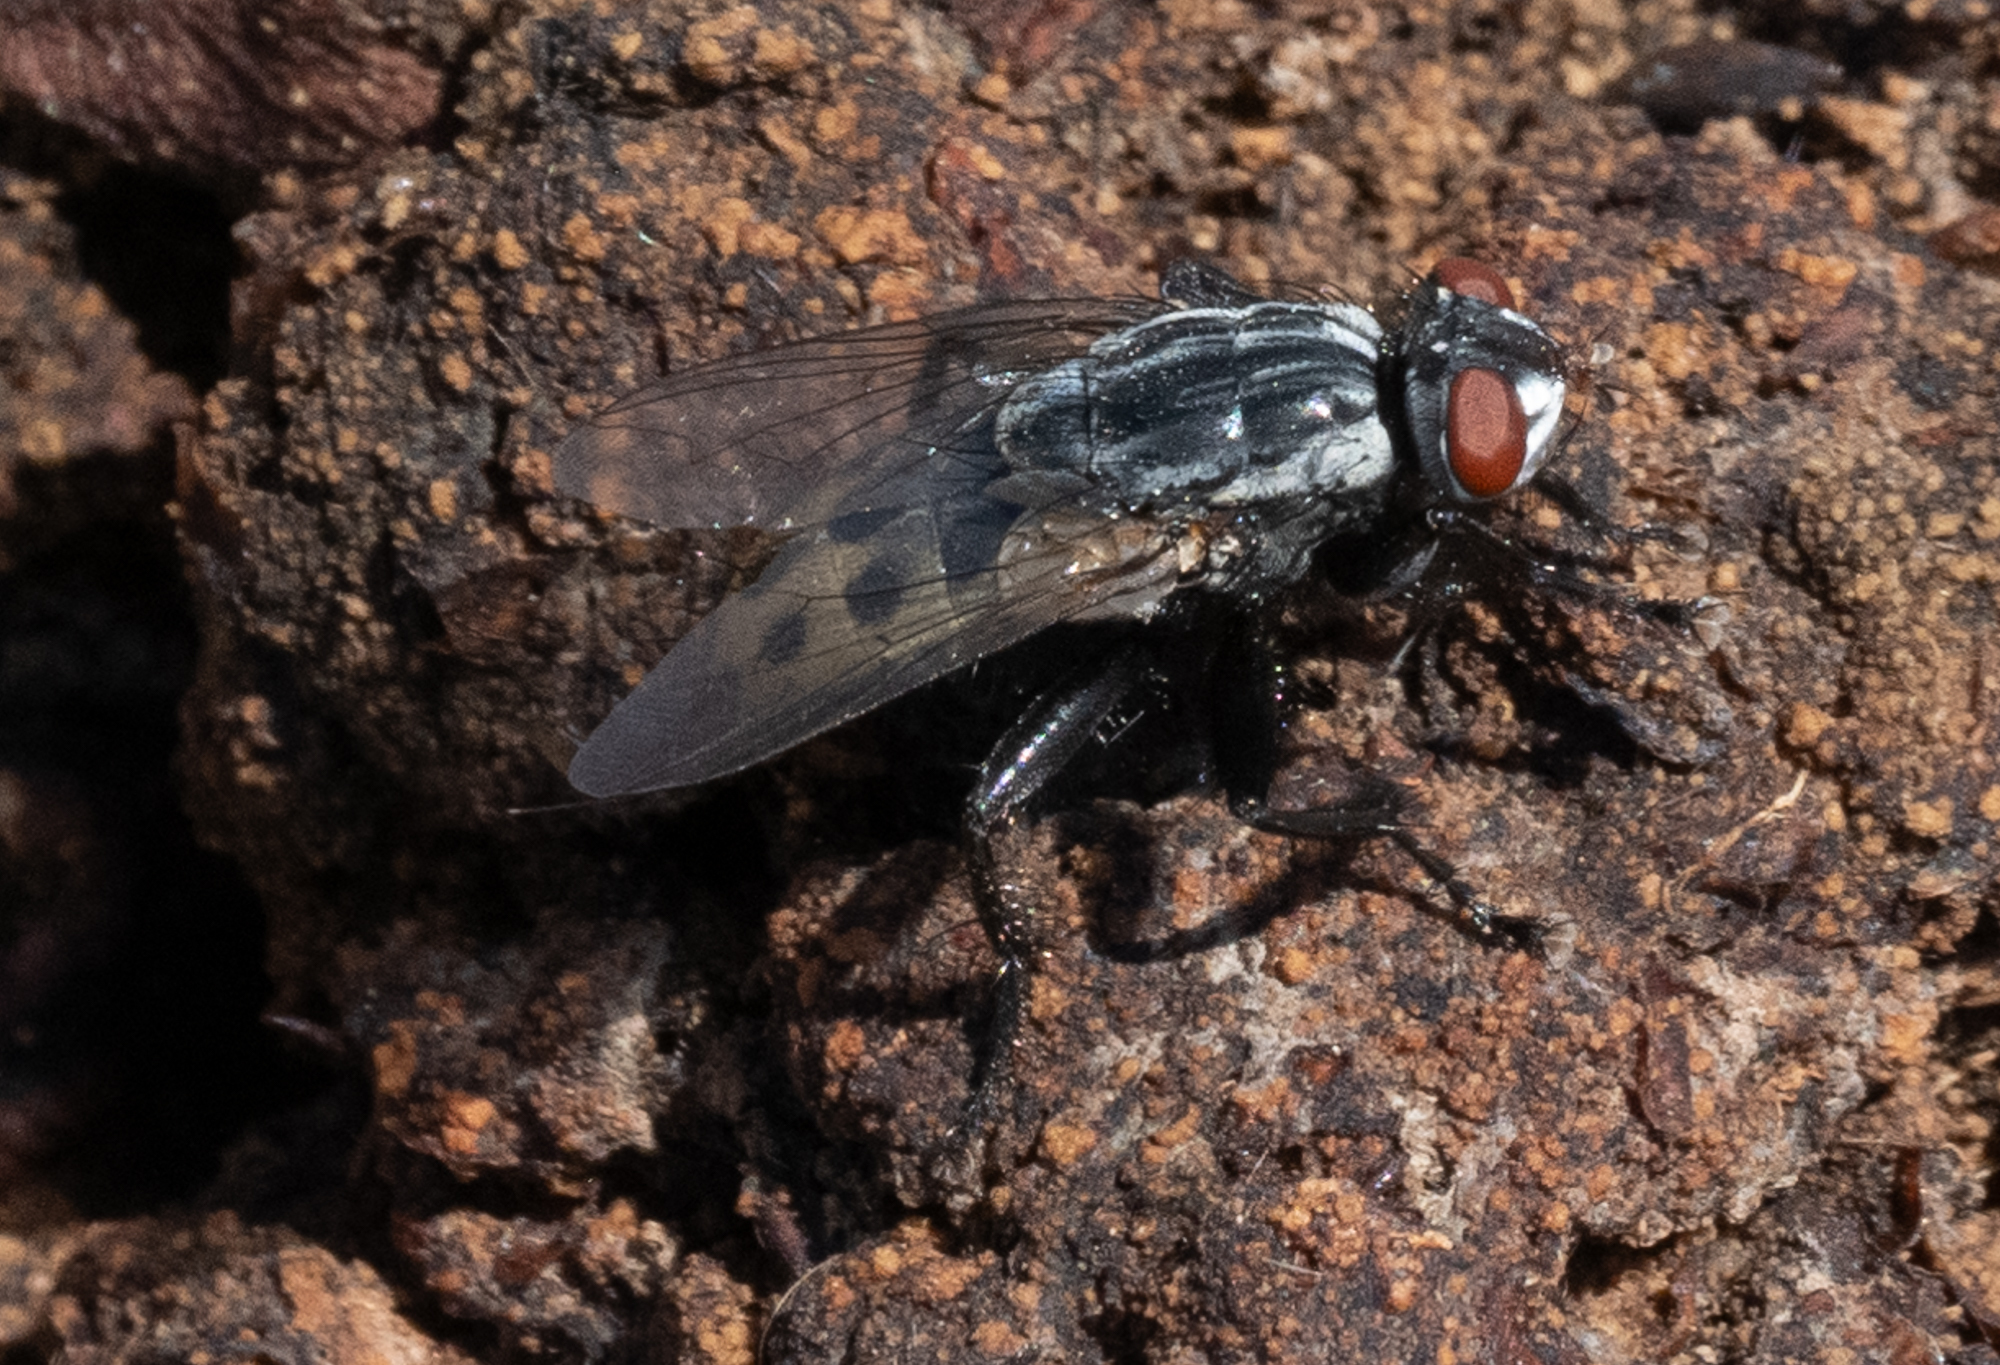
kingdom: Animalia
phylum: Arthropoda
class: Insecta
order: Diptera
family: Sarcophagidae
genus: Wohlfahrtia
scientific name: Wohlfahrtia vigil
